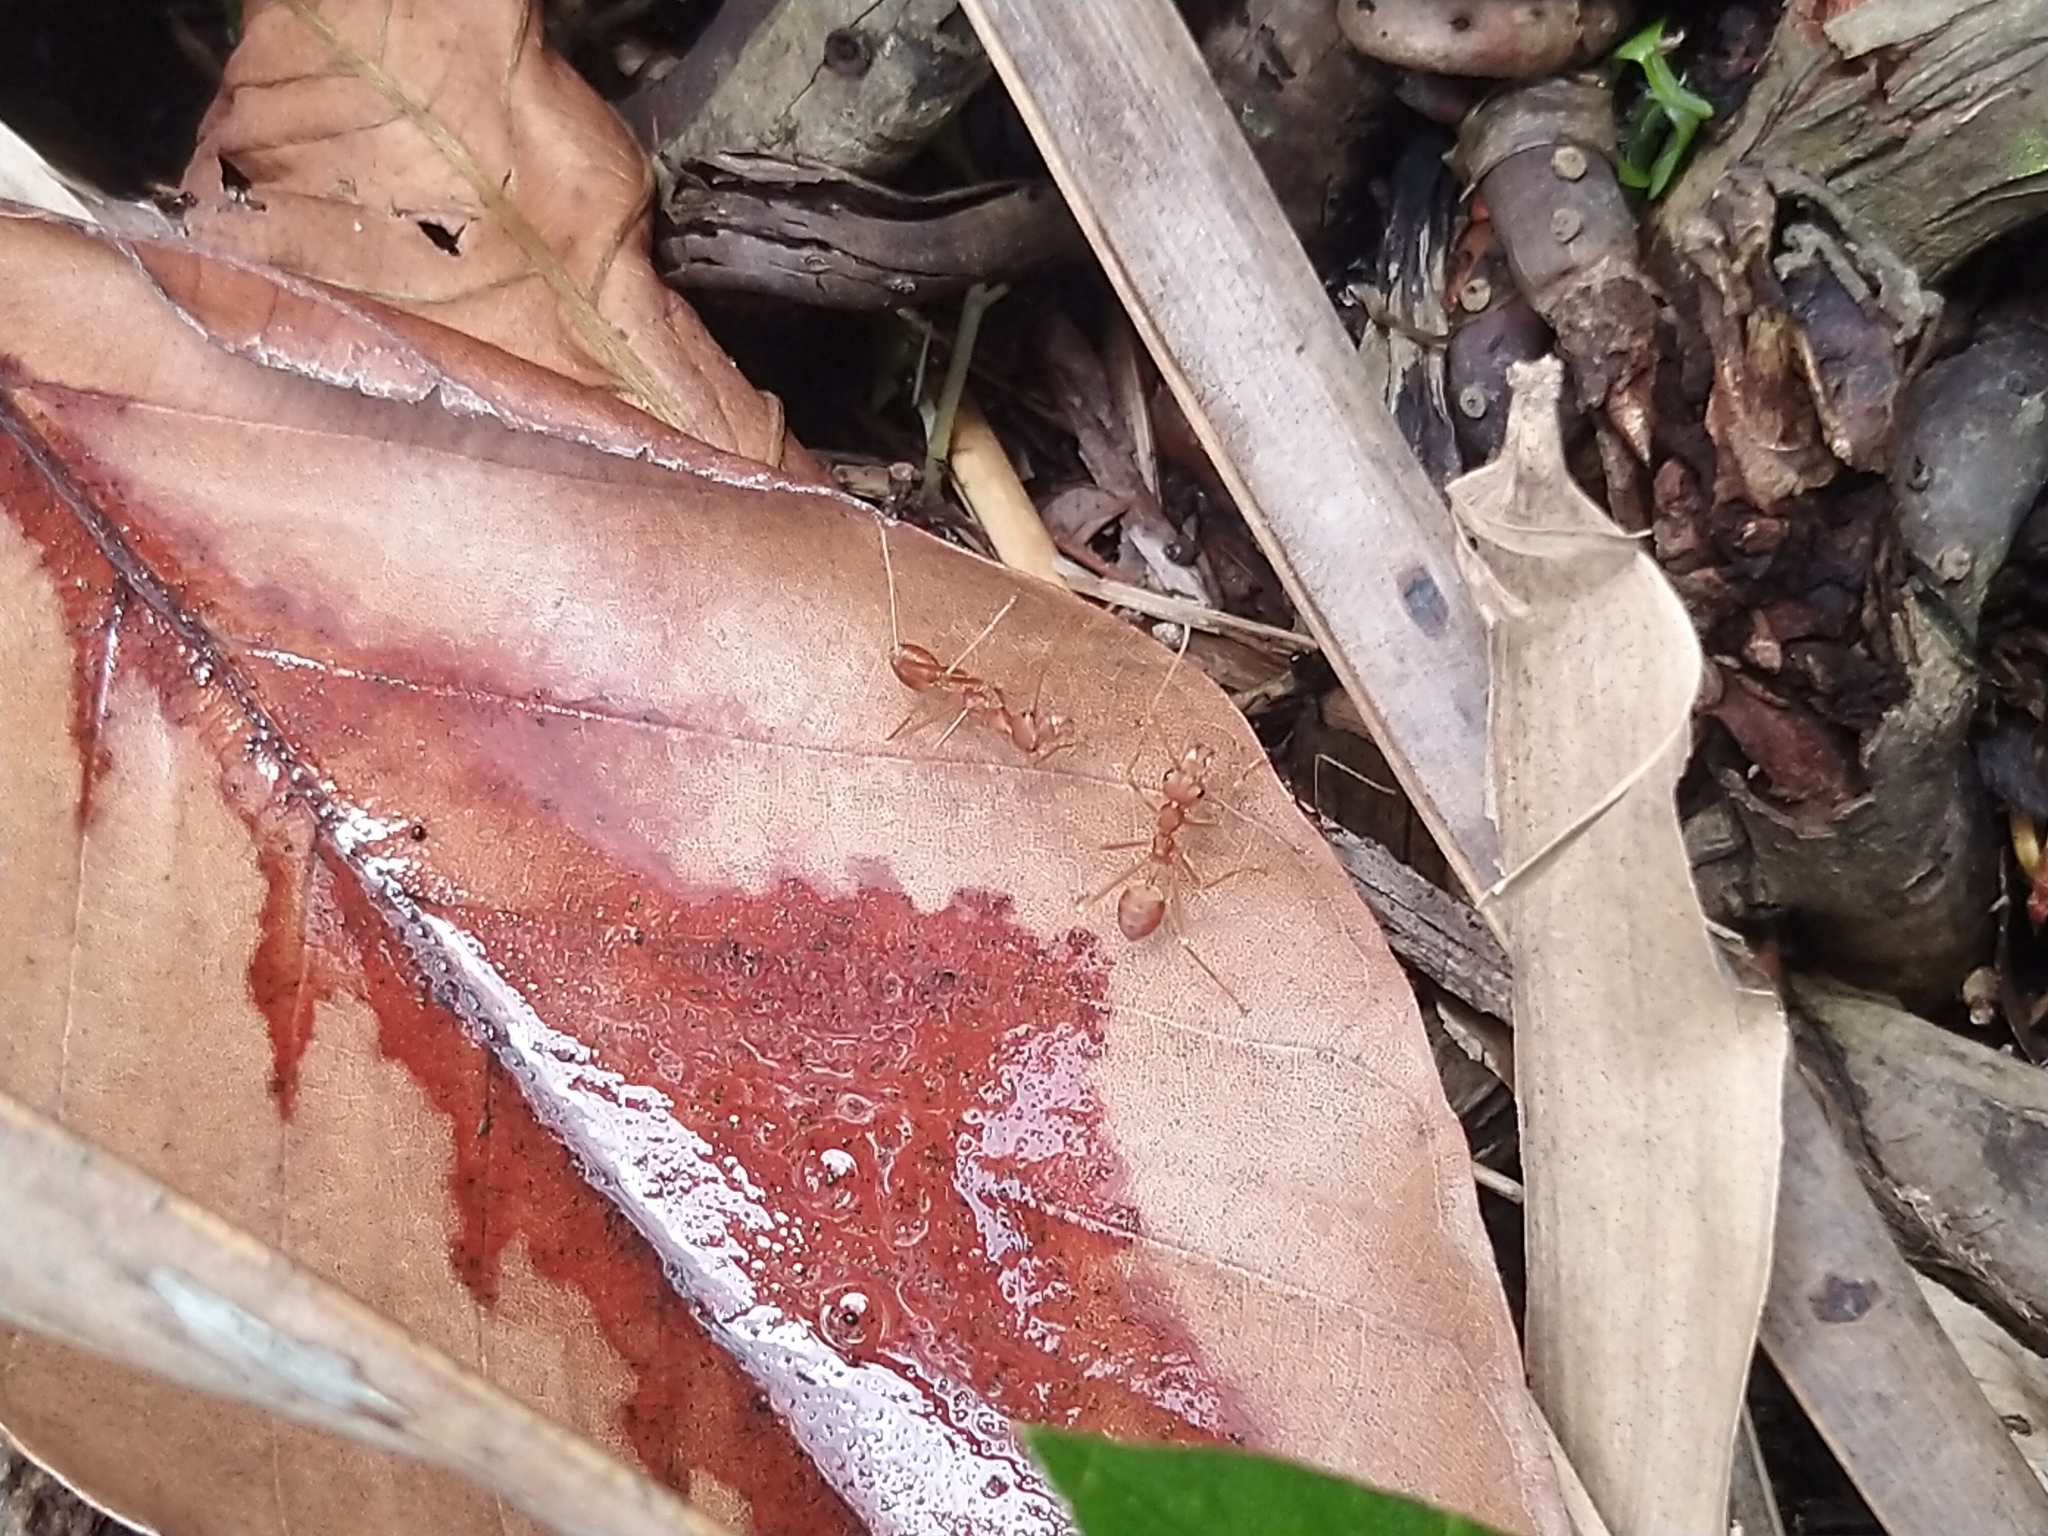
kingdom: Animalia
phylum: Arthropoda
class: Insecta
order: Hymenoptera
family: Formicidae
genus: Oecophylla
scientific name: Oecophylla smaragdina
